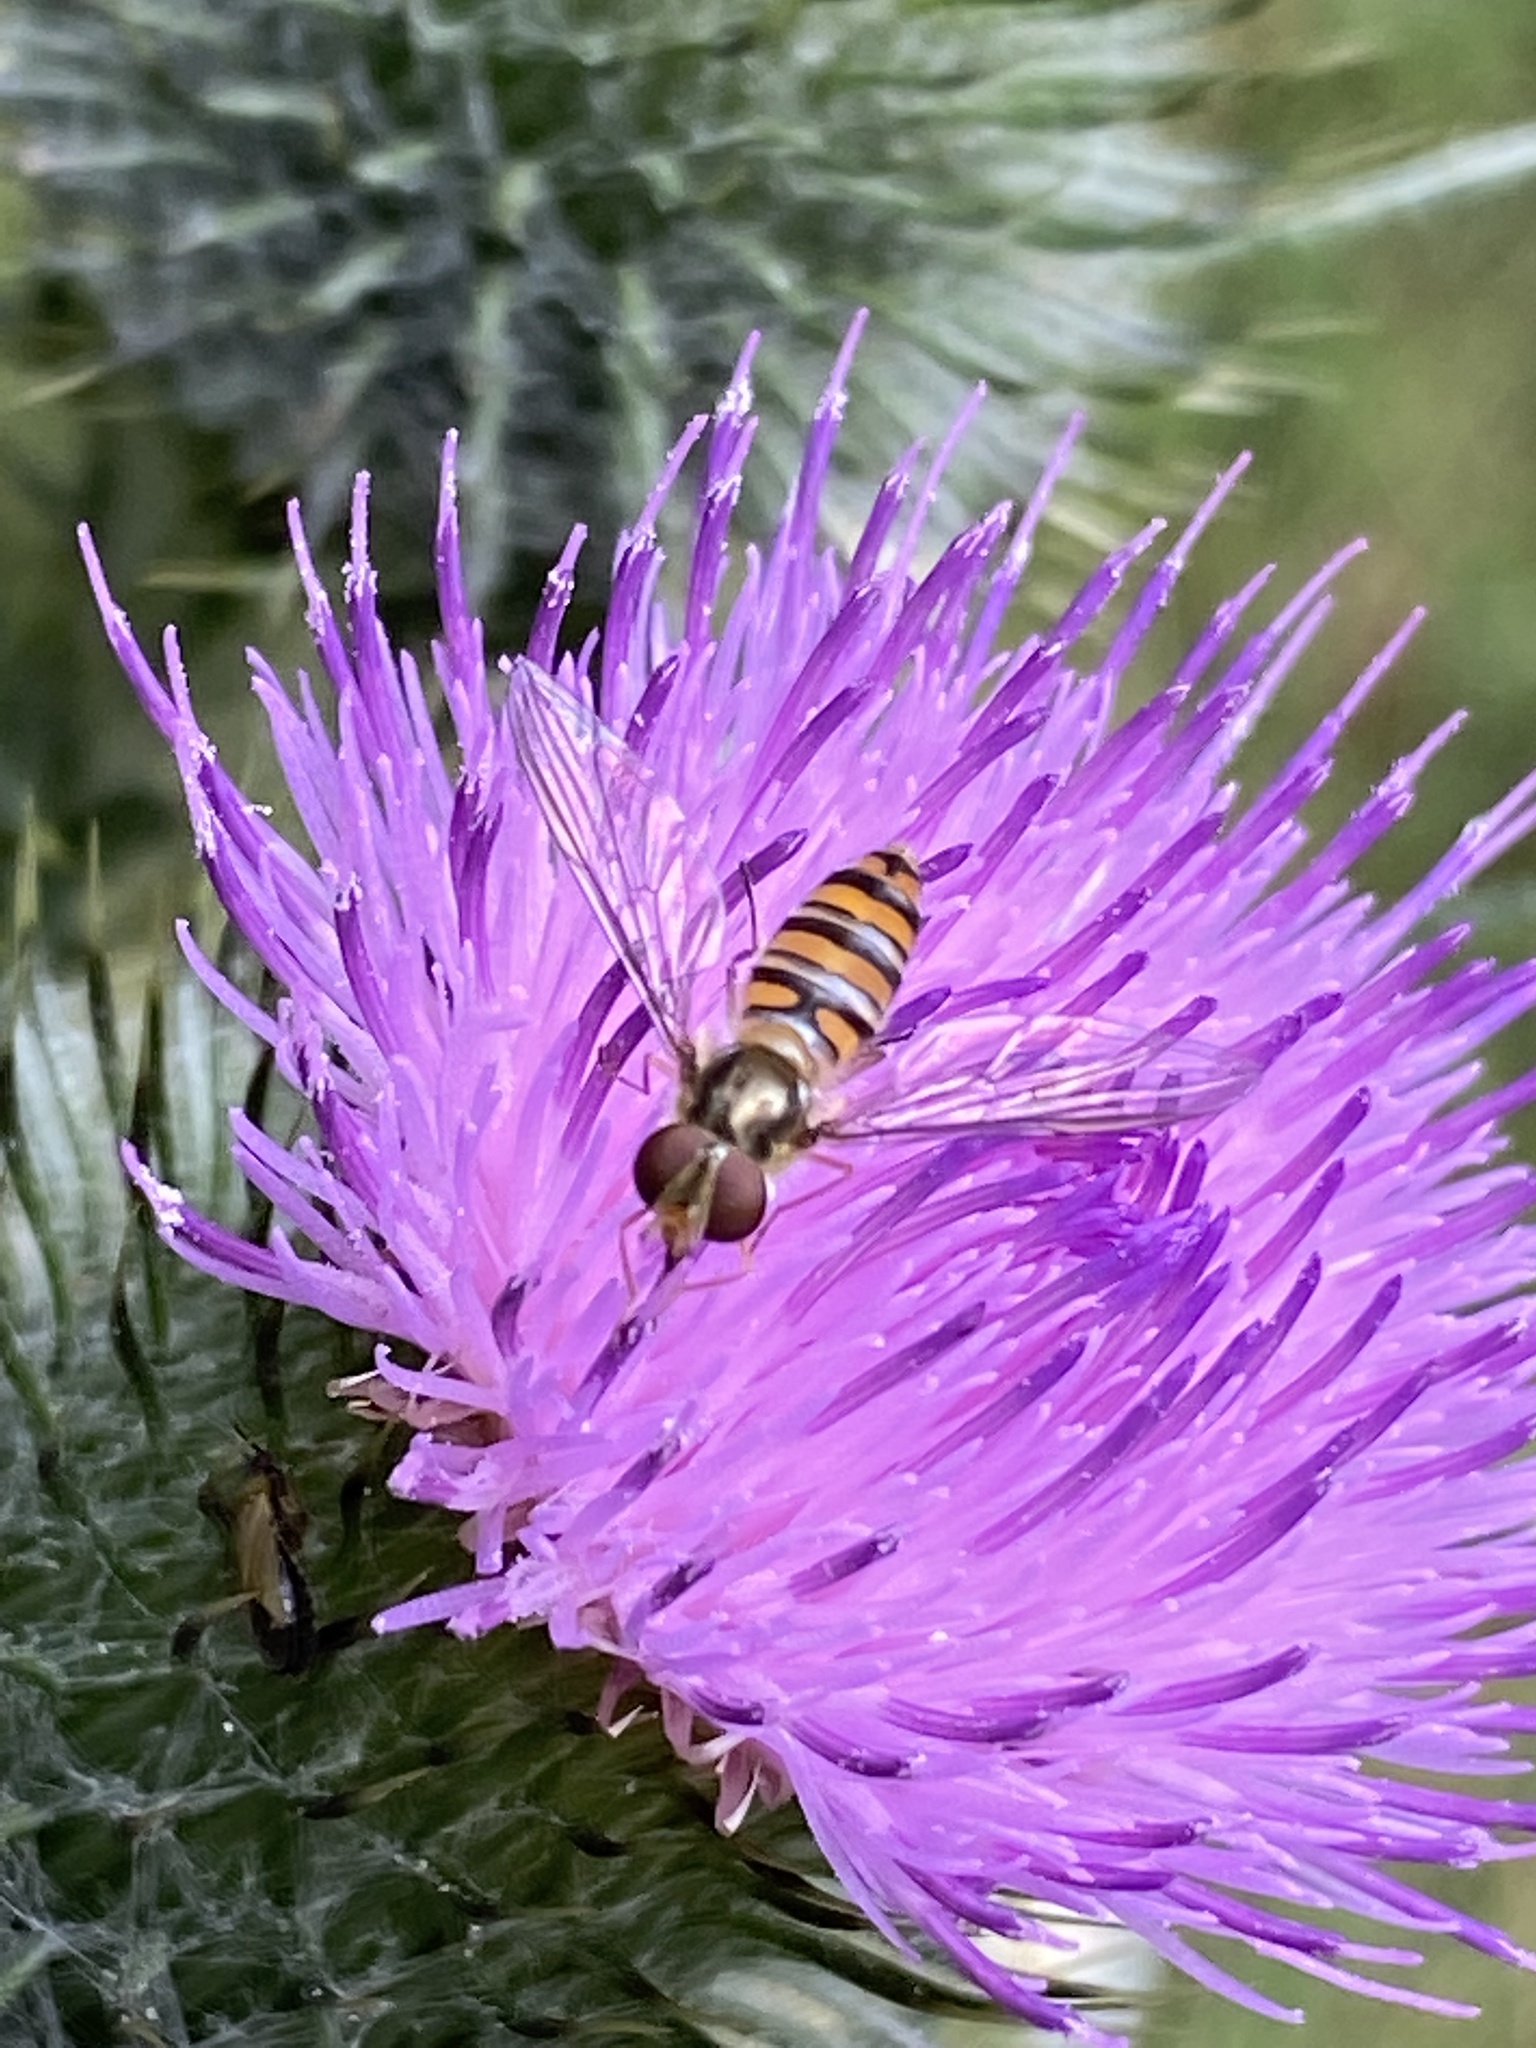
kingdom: Animalia
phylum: Arthropoda
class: Insecta
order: Diptera
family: Syrphidae
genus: Episyrphus
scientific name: Episyrphus balteatus
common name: Marmalade hoverfly
